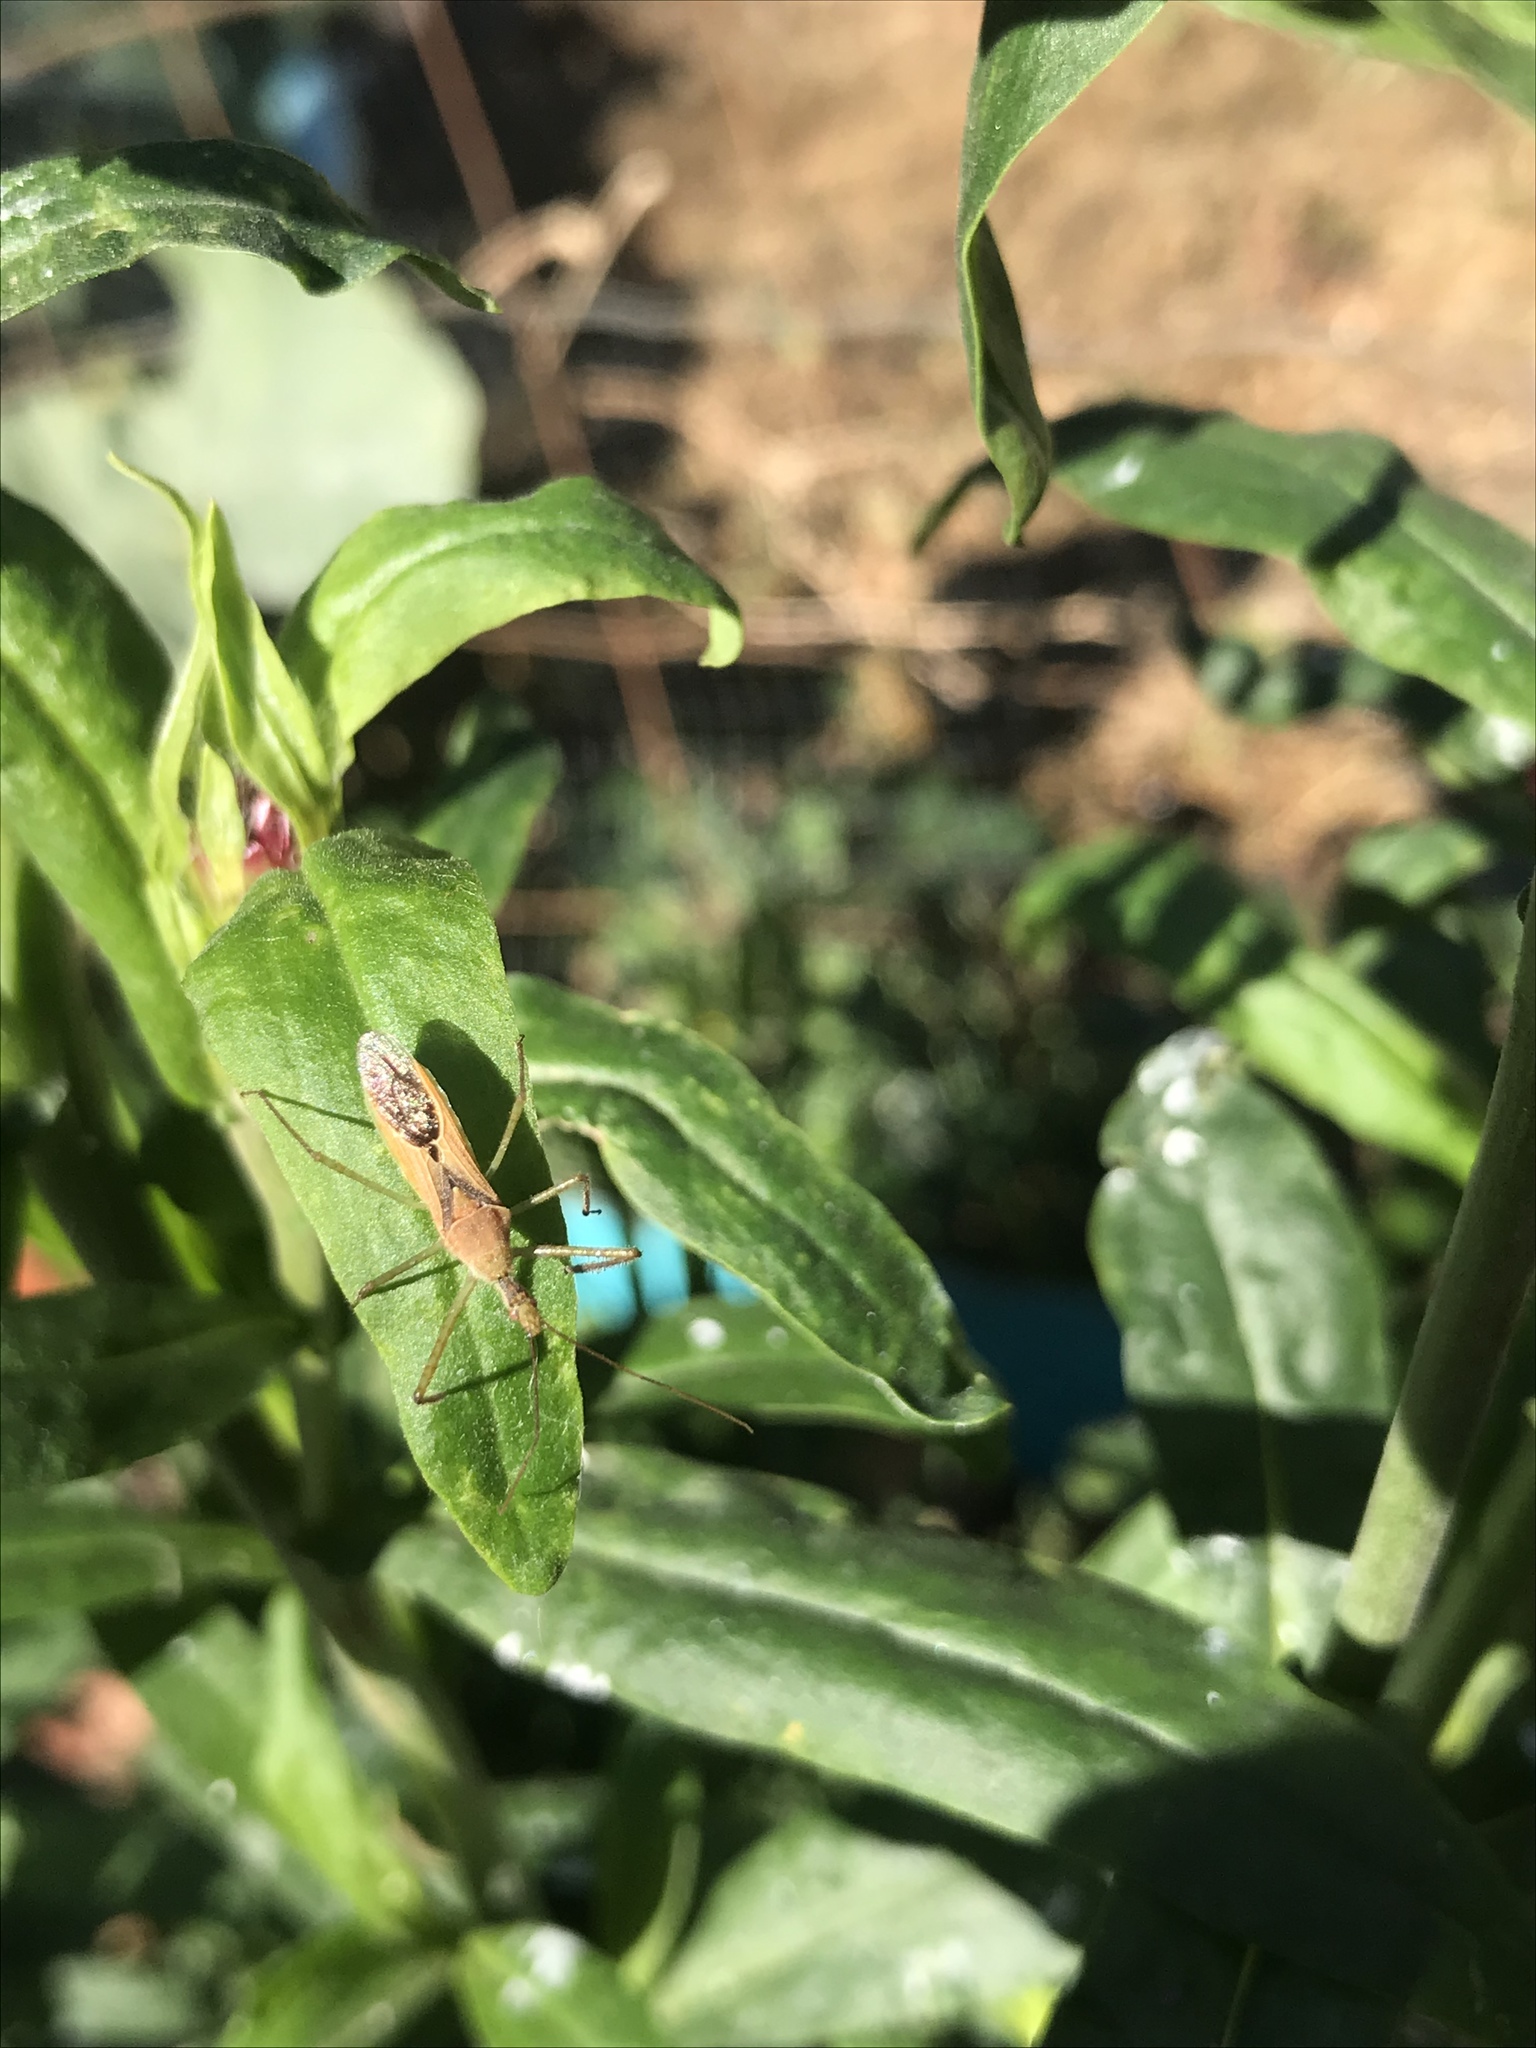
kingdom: Animalia
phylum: Arthropoda
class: Insecta
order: Hemiptera
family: Reduviidae
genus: Zelus
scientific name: Zelus renardii
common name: Assassin bug
